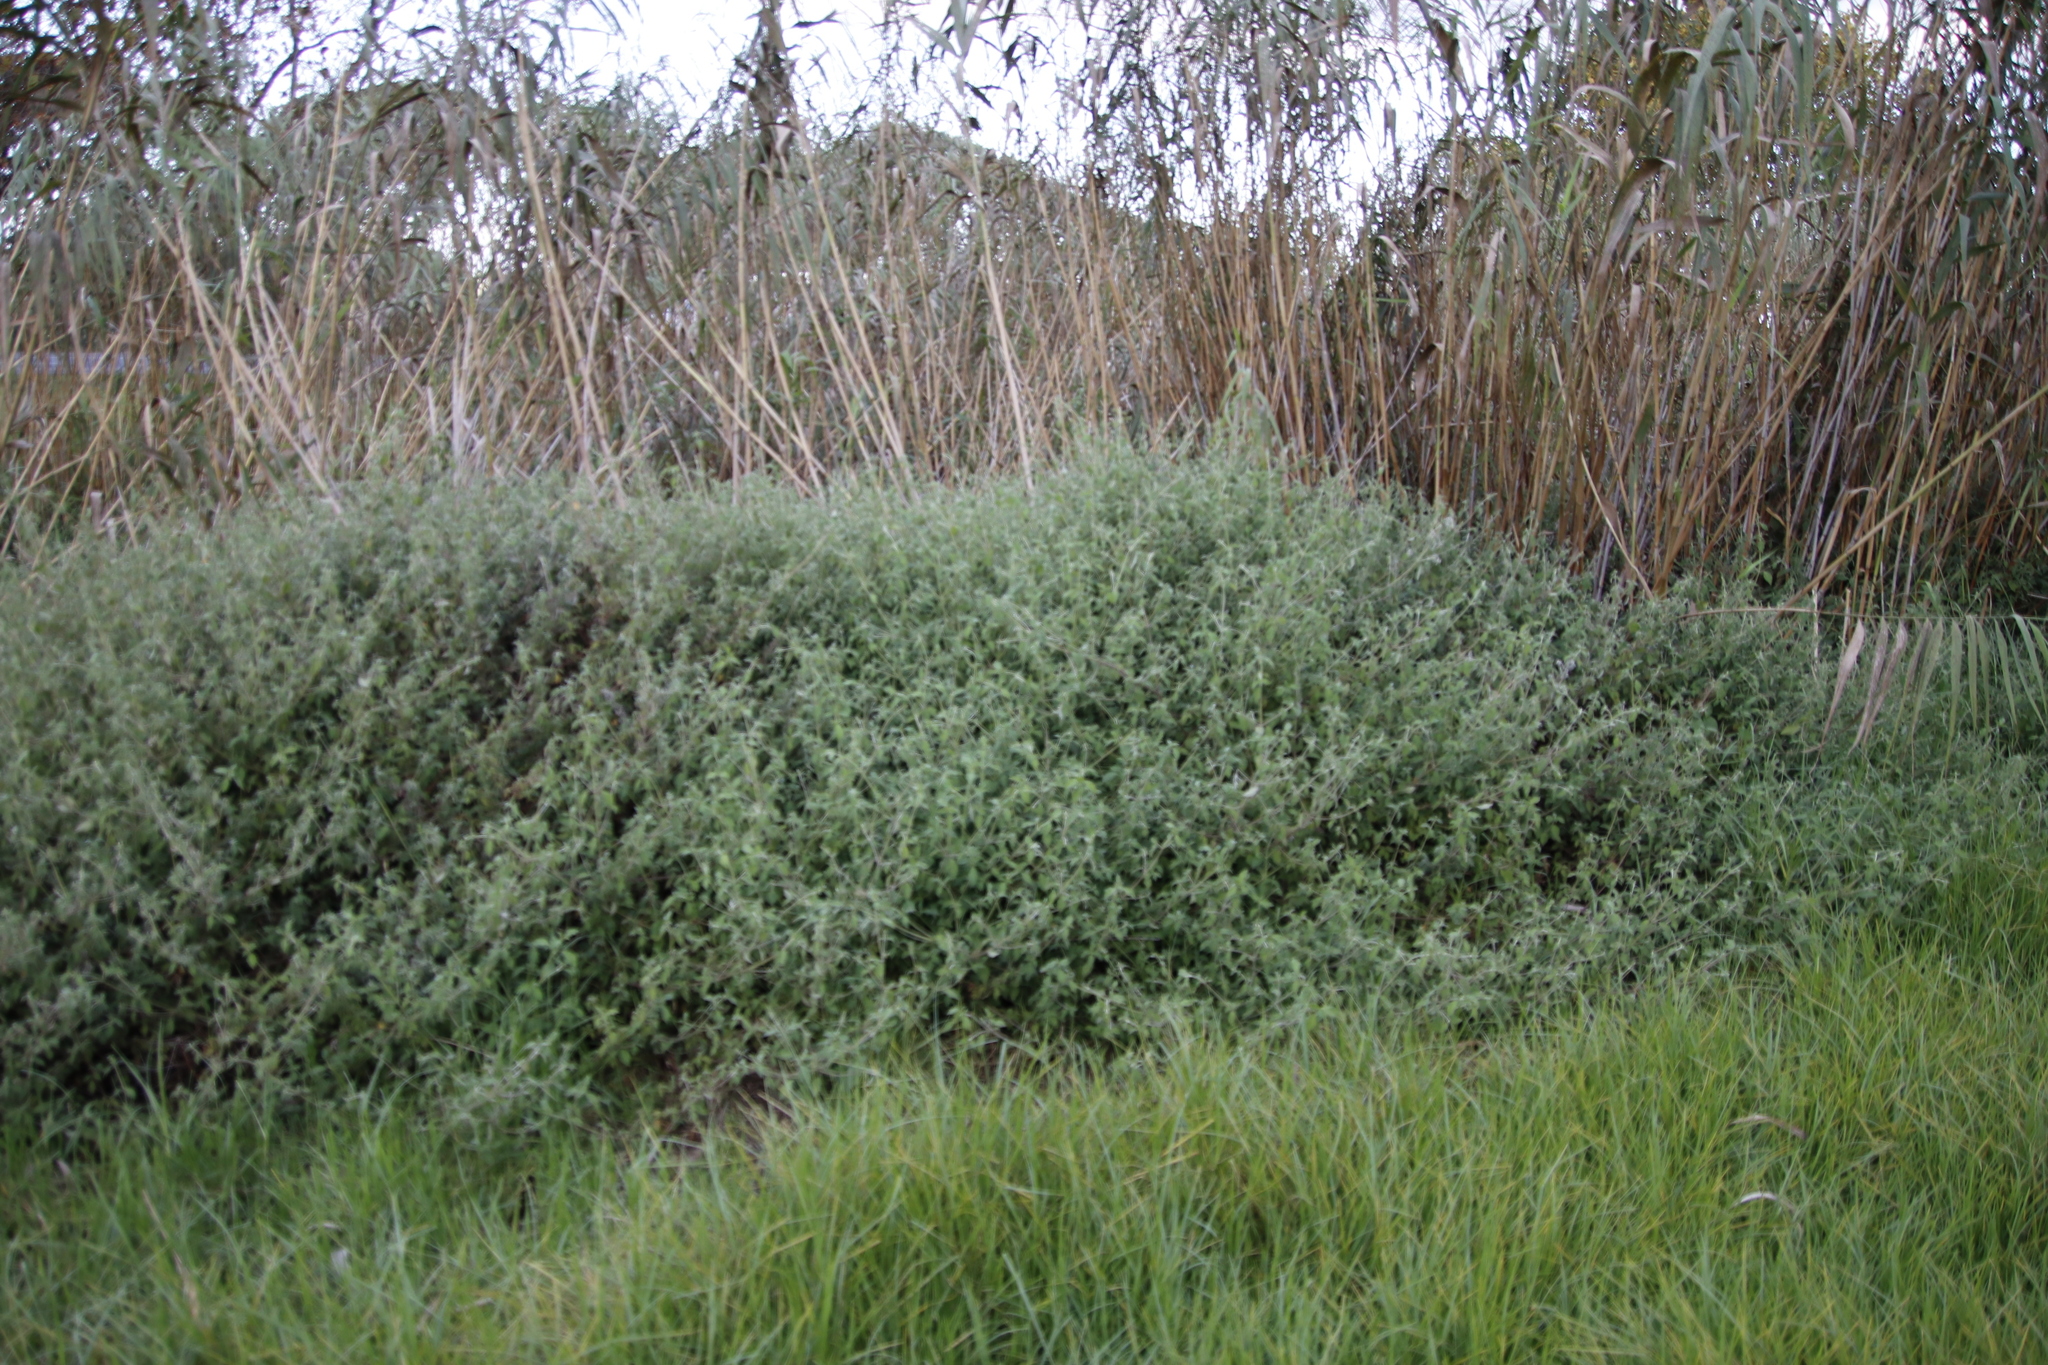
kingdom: Plantae
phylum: Tracheophyta
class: Magnoliopsida
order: Caryophyllales
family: Amaranthaceae
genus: Achyranthes
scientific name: Achyranthes aspera
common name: Devil's horsewhip
